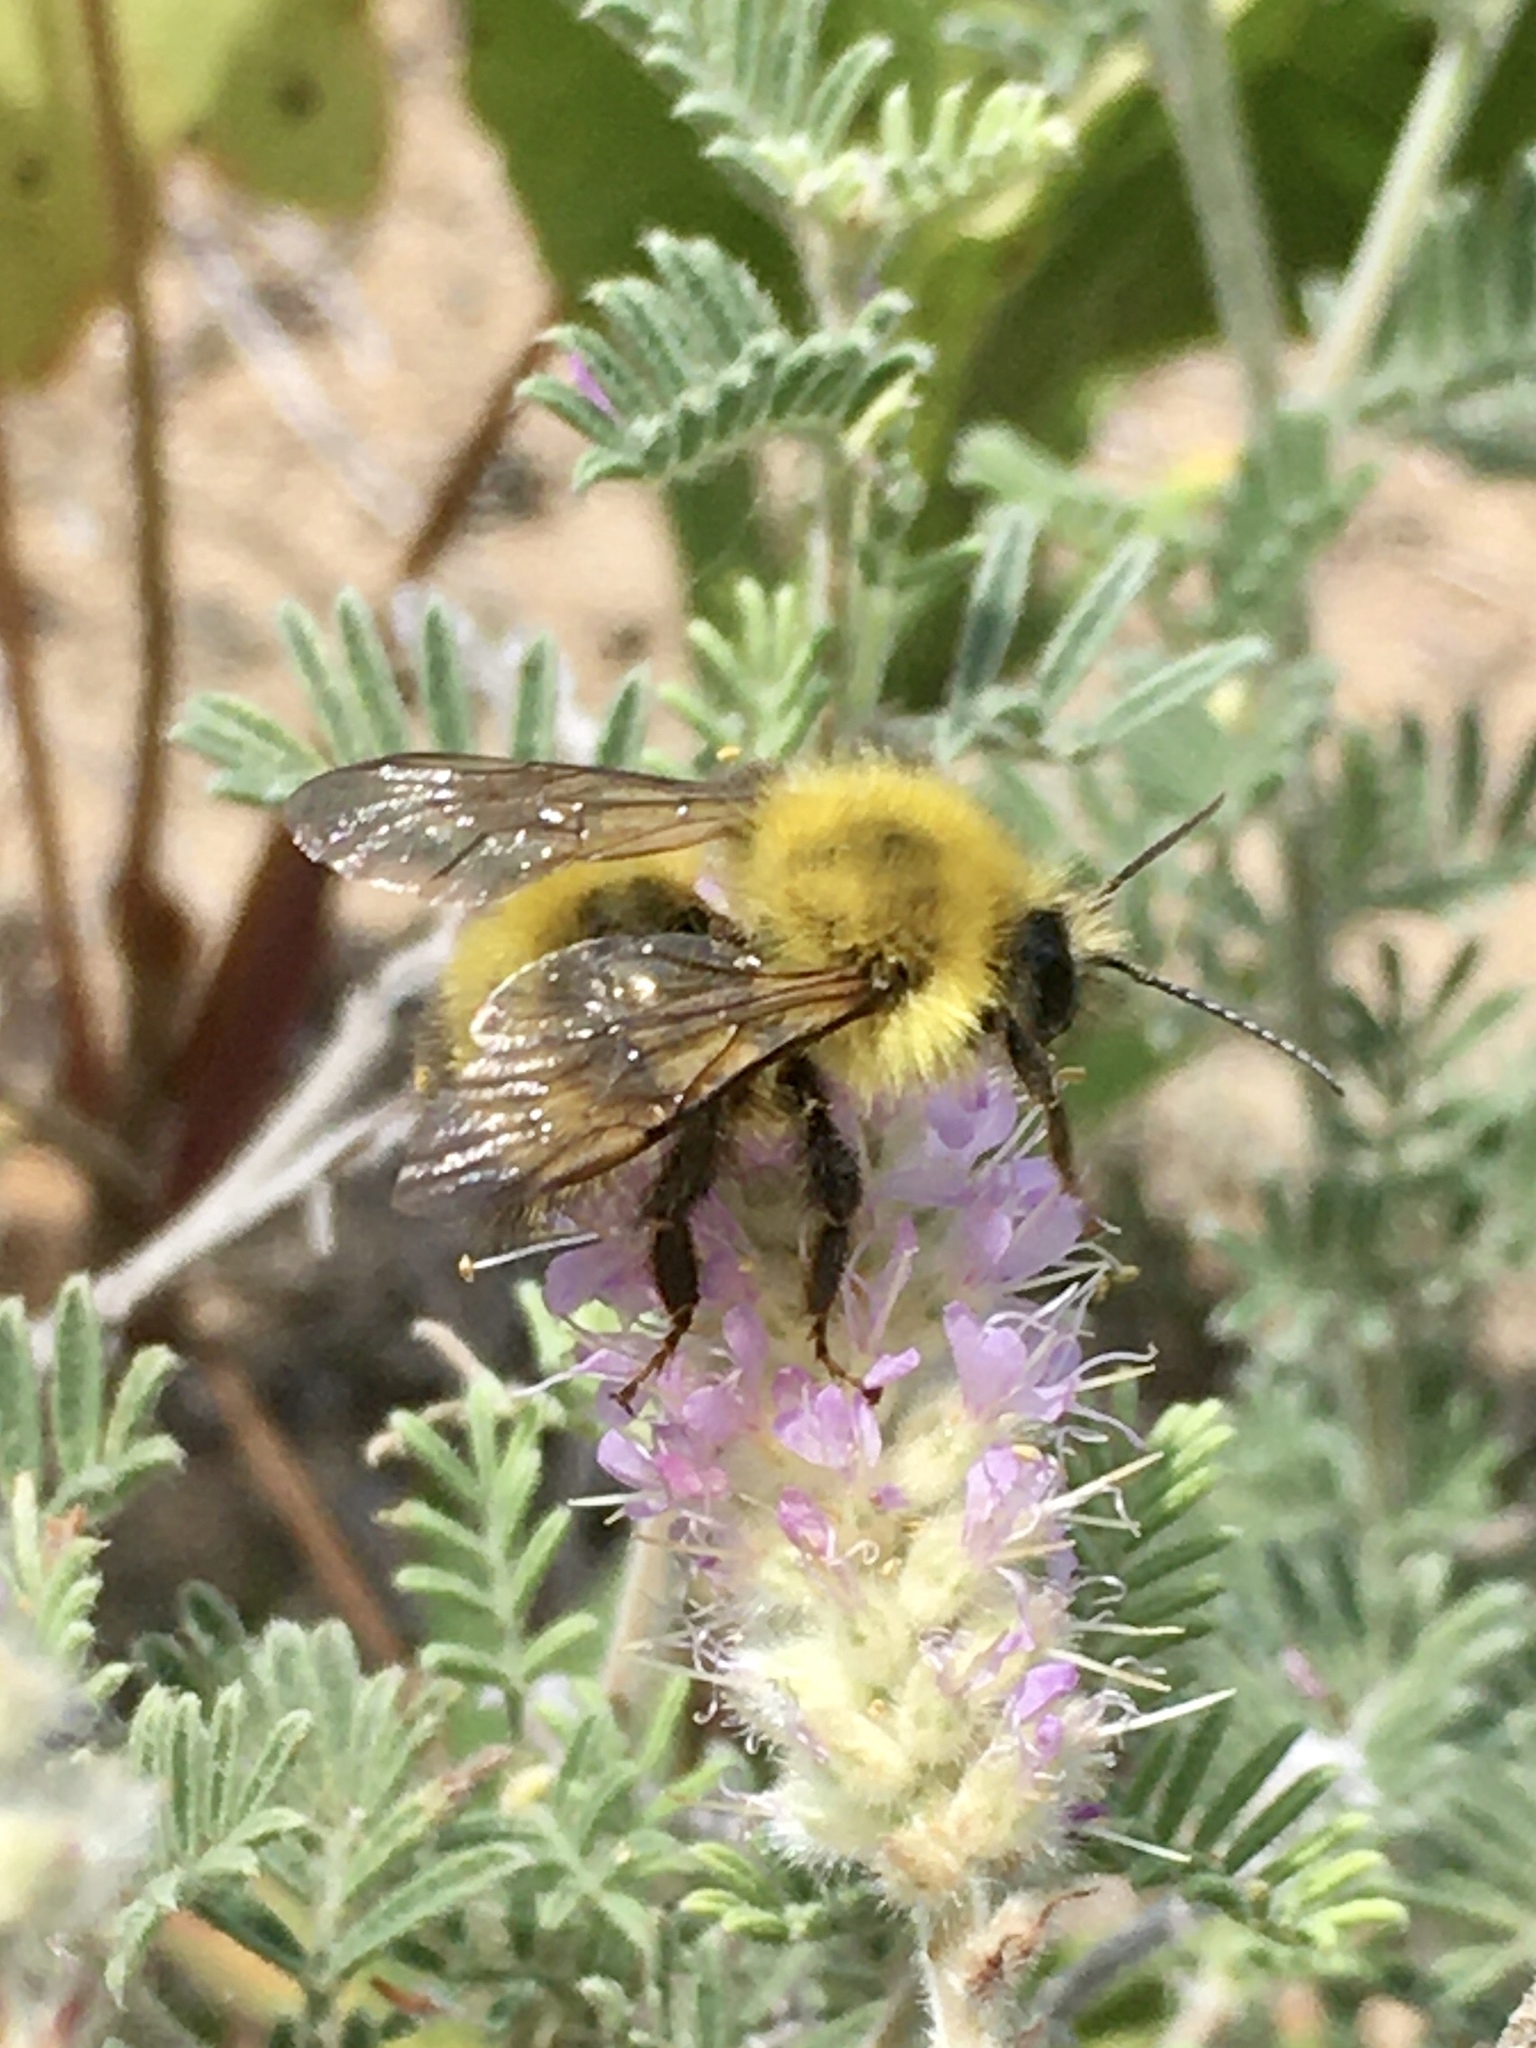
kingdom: Animalia
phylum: Arthropoda
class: Insecta
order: Hymenoptera
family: Apidae
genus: Bombus
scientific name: Bombus perplexus
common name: Confusing bumble bee
